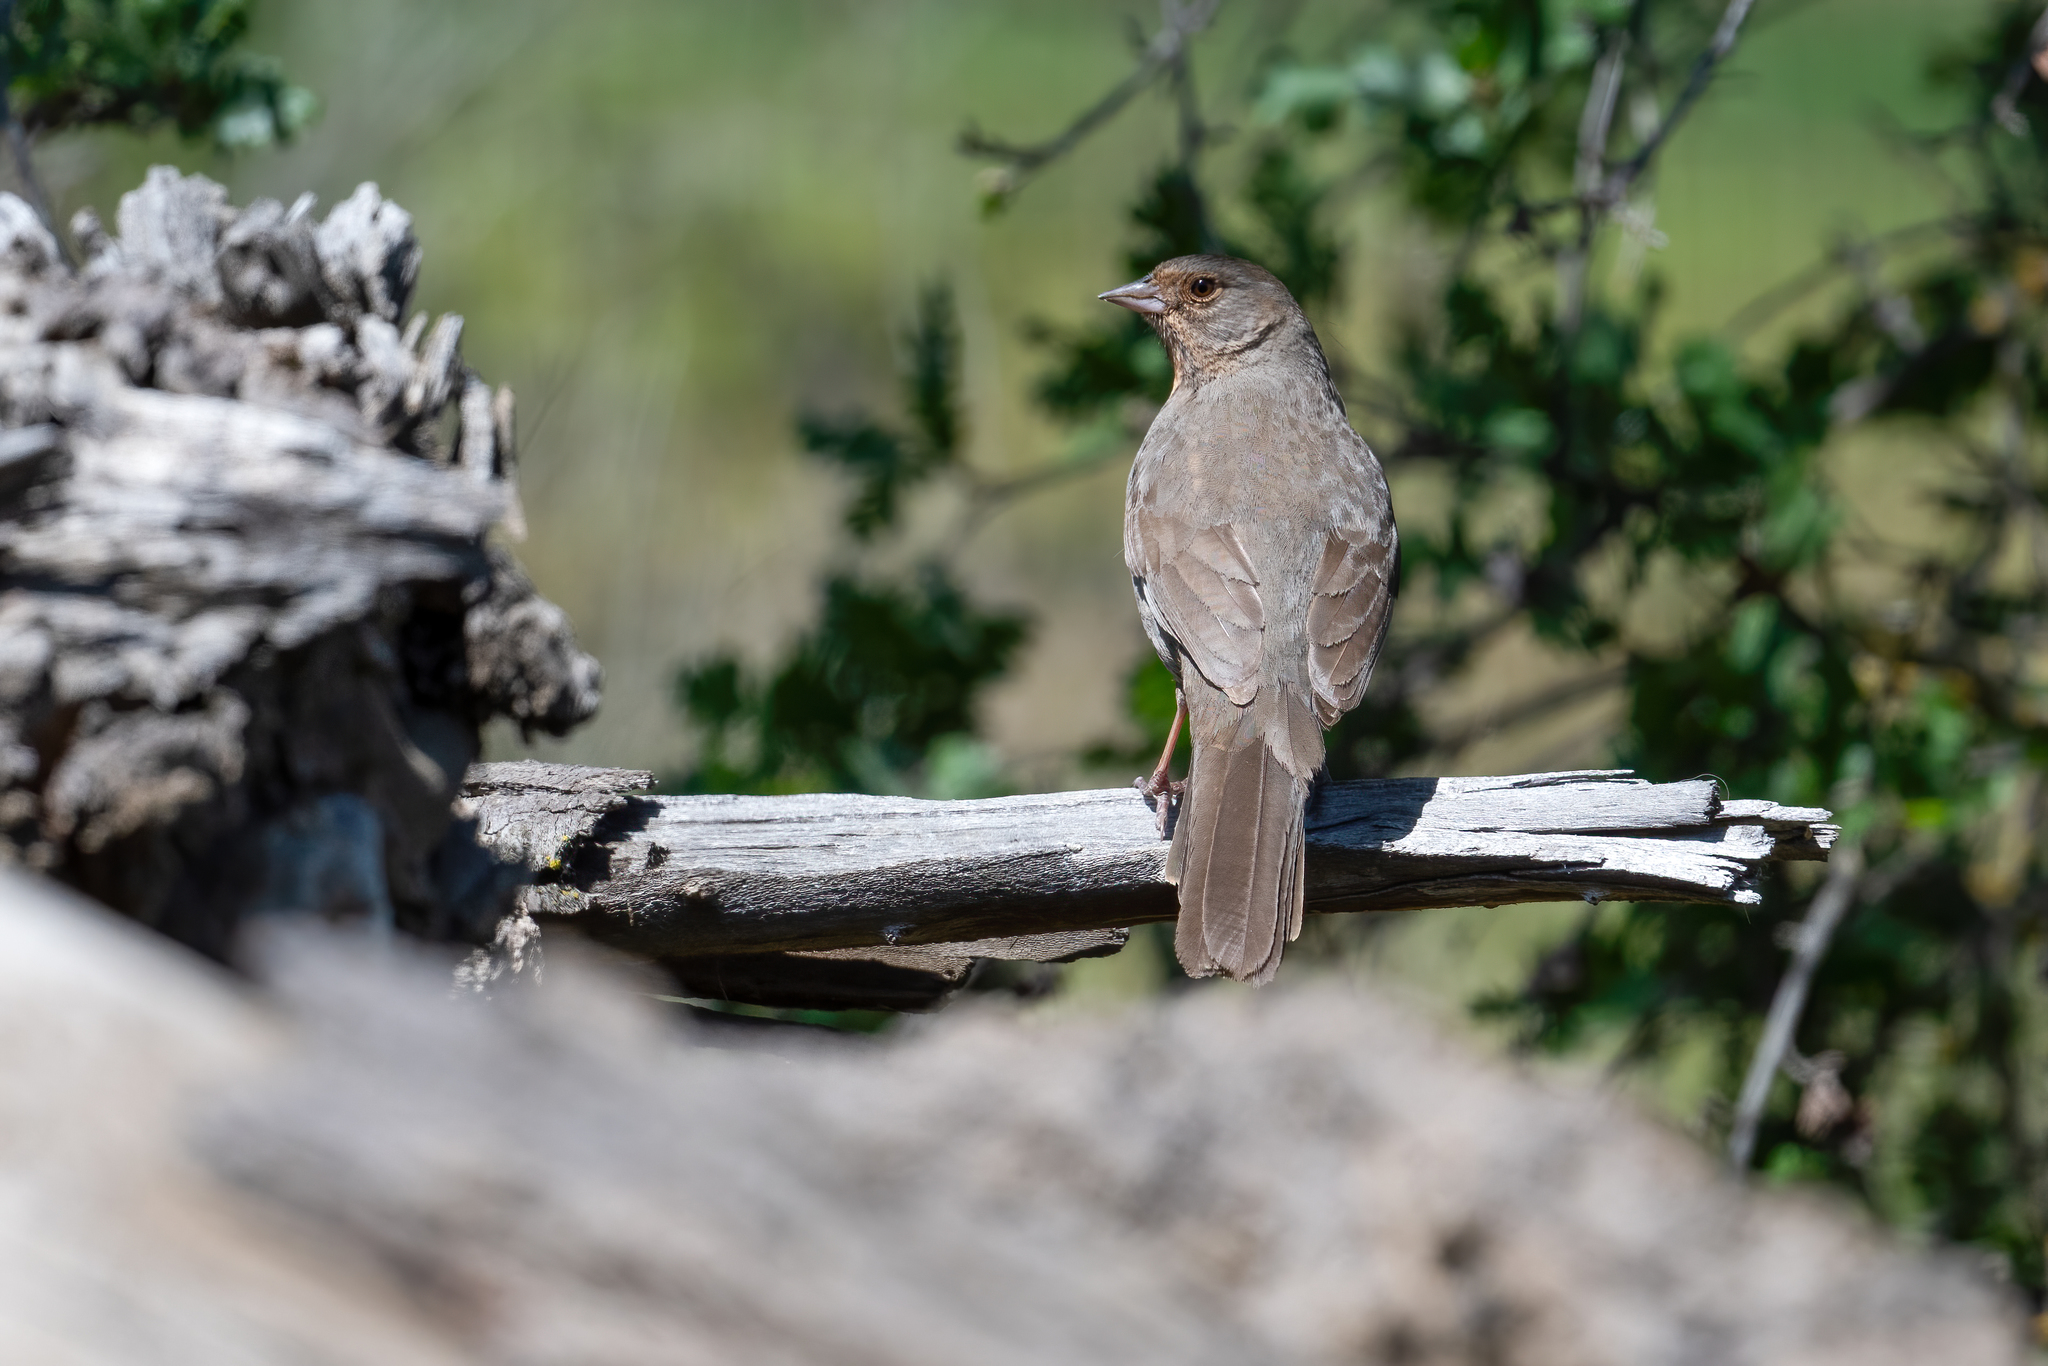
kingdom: Animalia
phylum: Chordata
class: Aves
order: Passeriformes
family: Passerellidae
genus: Melozone
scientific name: Melozone crissalis
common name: California towhee
